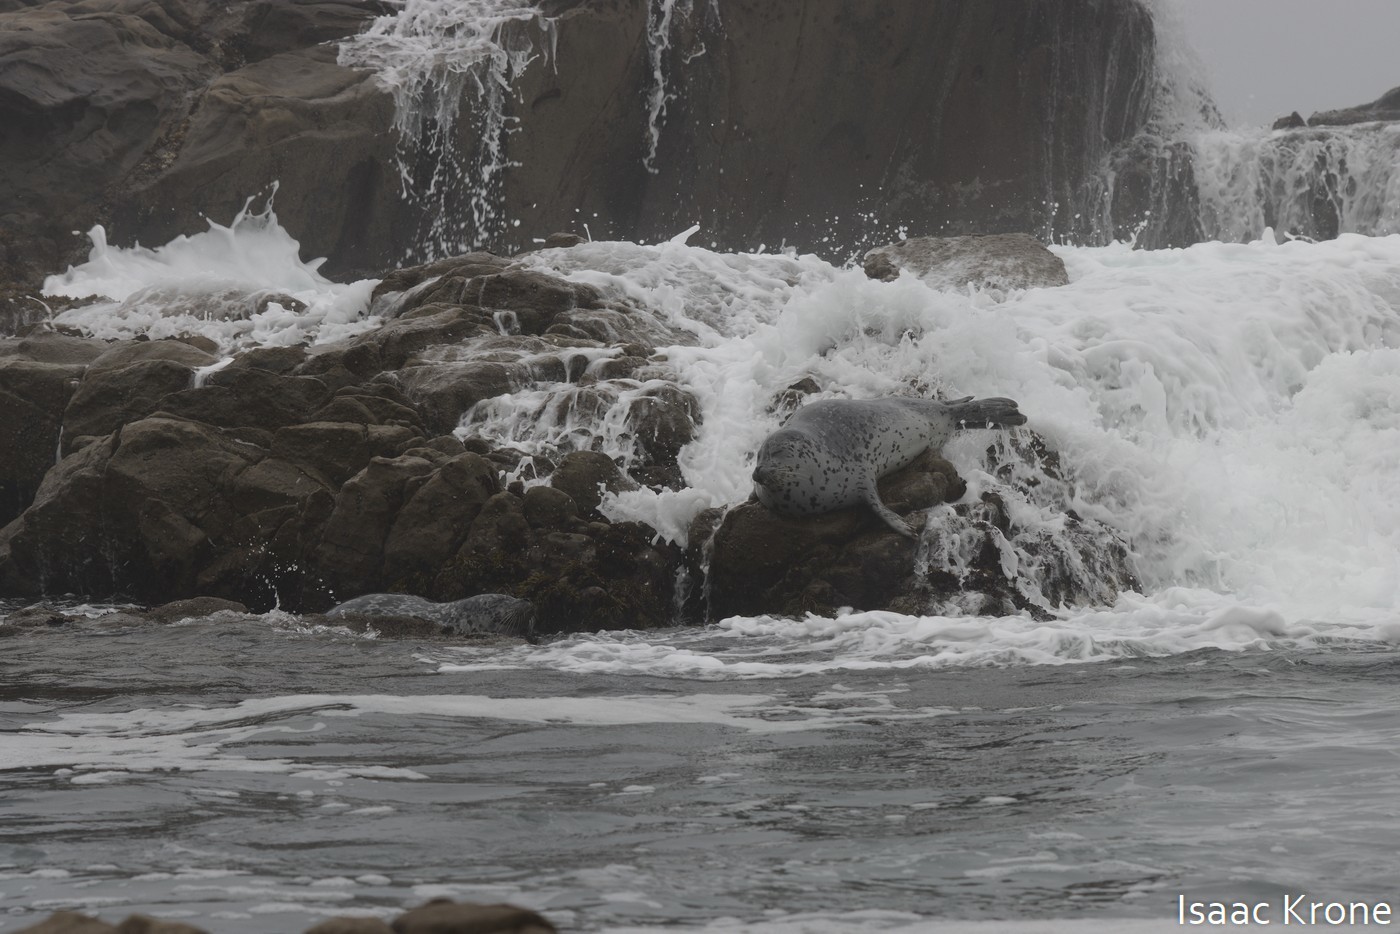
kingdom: Animalia
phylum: Chordata
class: Mammalia
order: Carnivora
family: Phocidae
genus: Phoca
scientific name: Phoca vitulina
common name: Harbor seal
